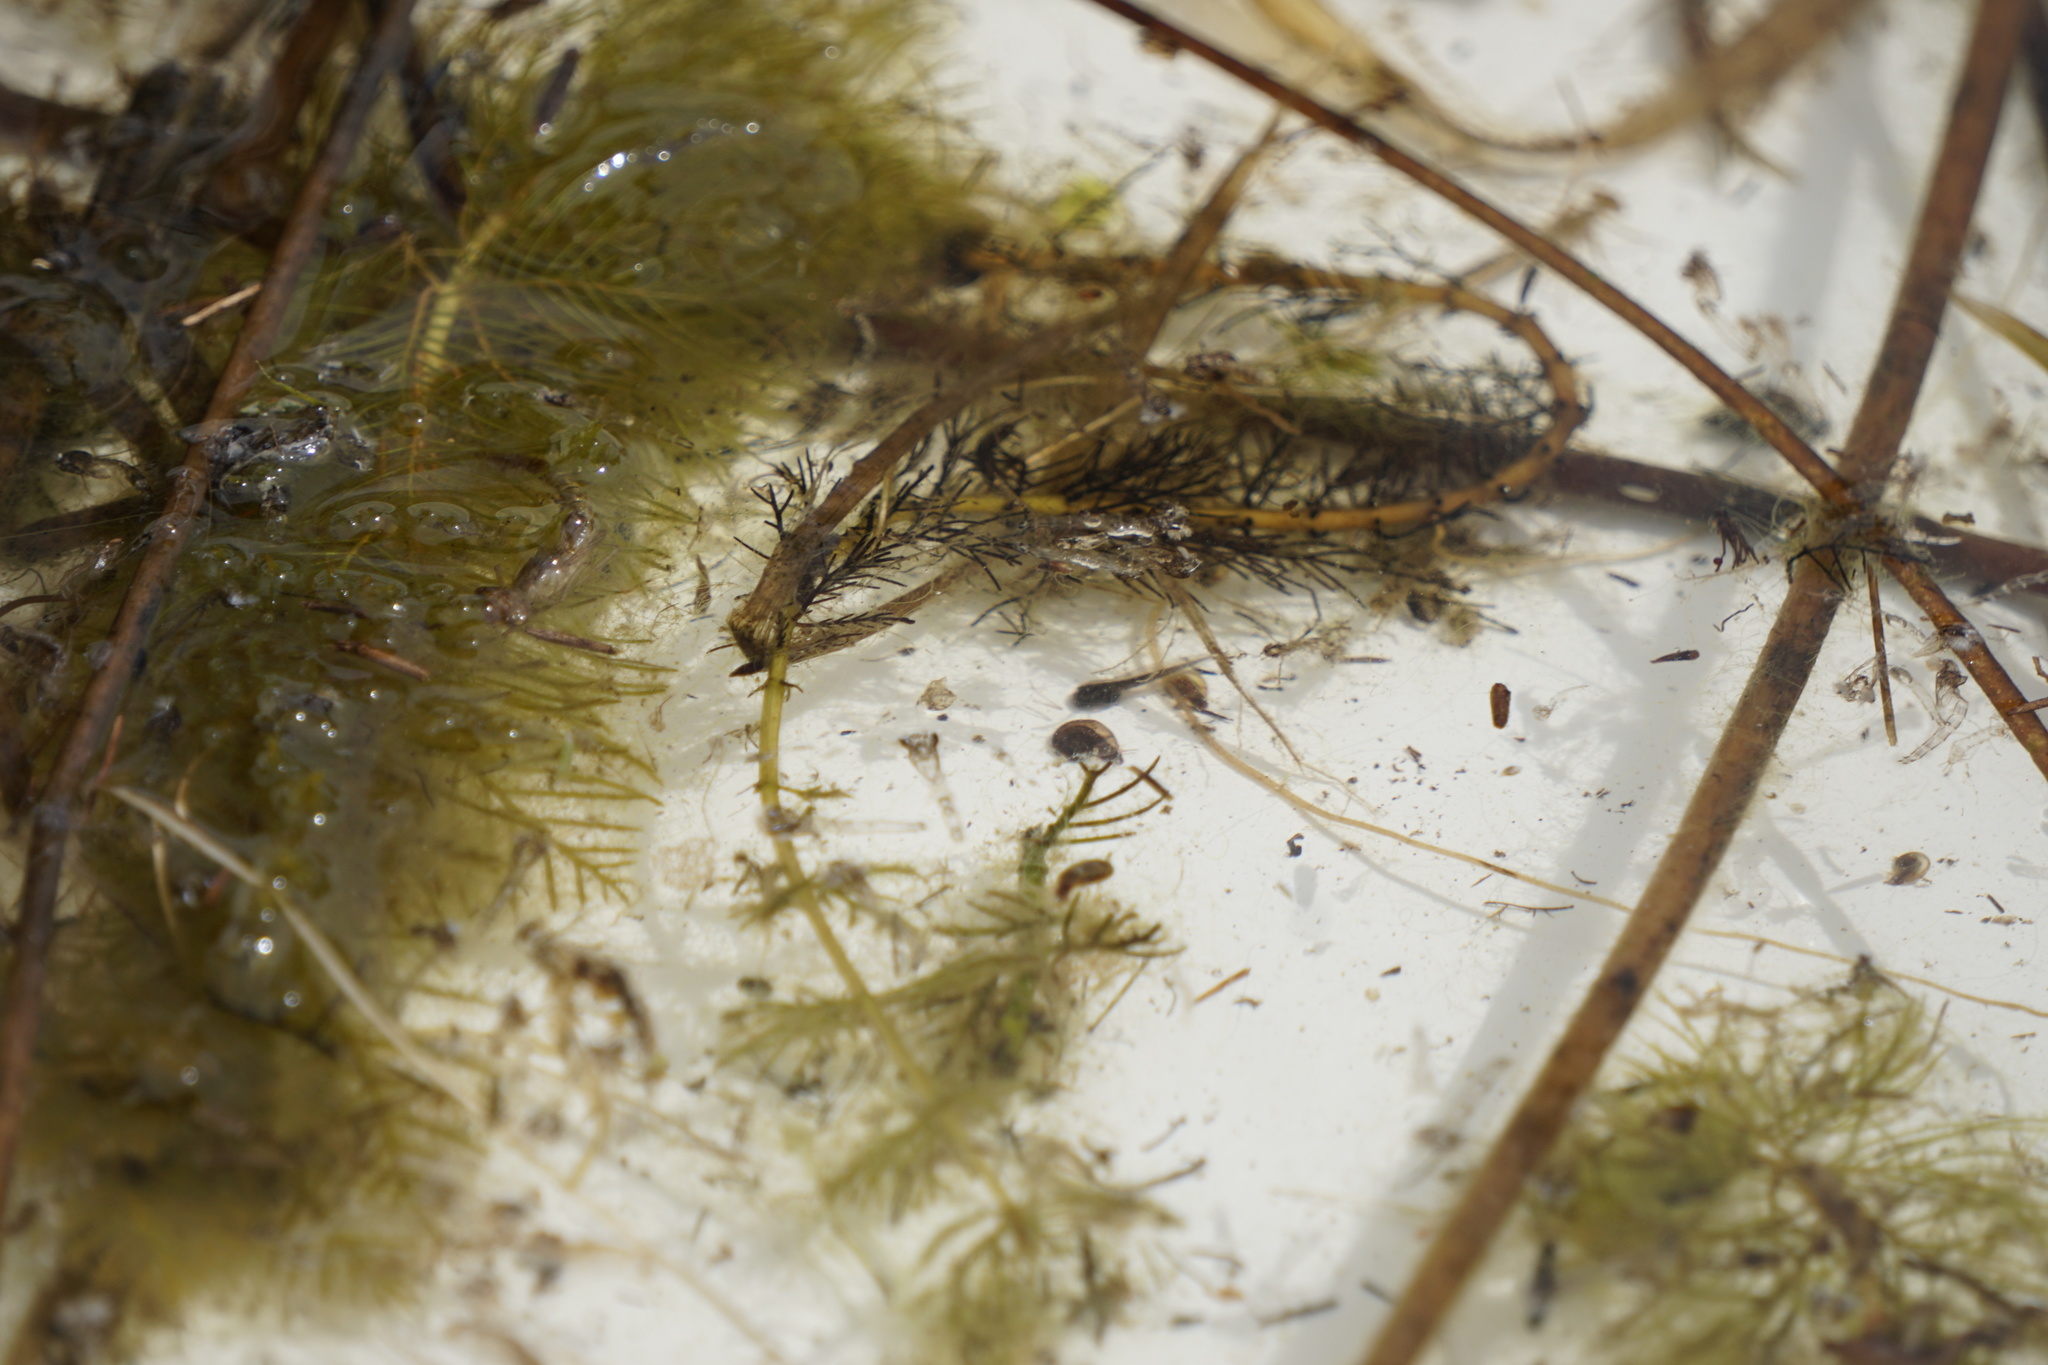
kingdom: Animalia
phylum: Chordata
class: Amphibia
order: Anura
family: Hylidae
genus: Pseudacris
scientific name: Pseudacris regilla
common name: Pacific chorus frog
